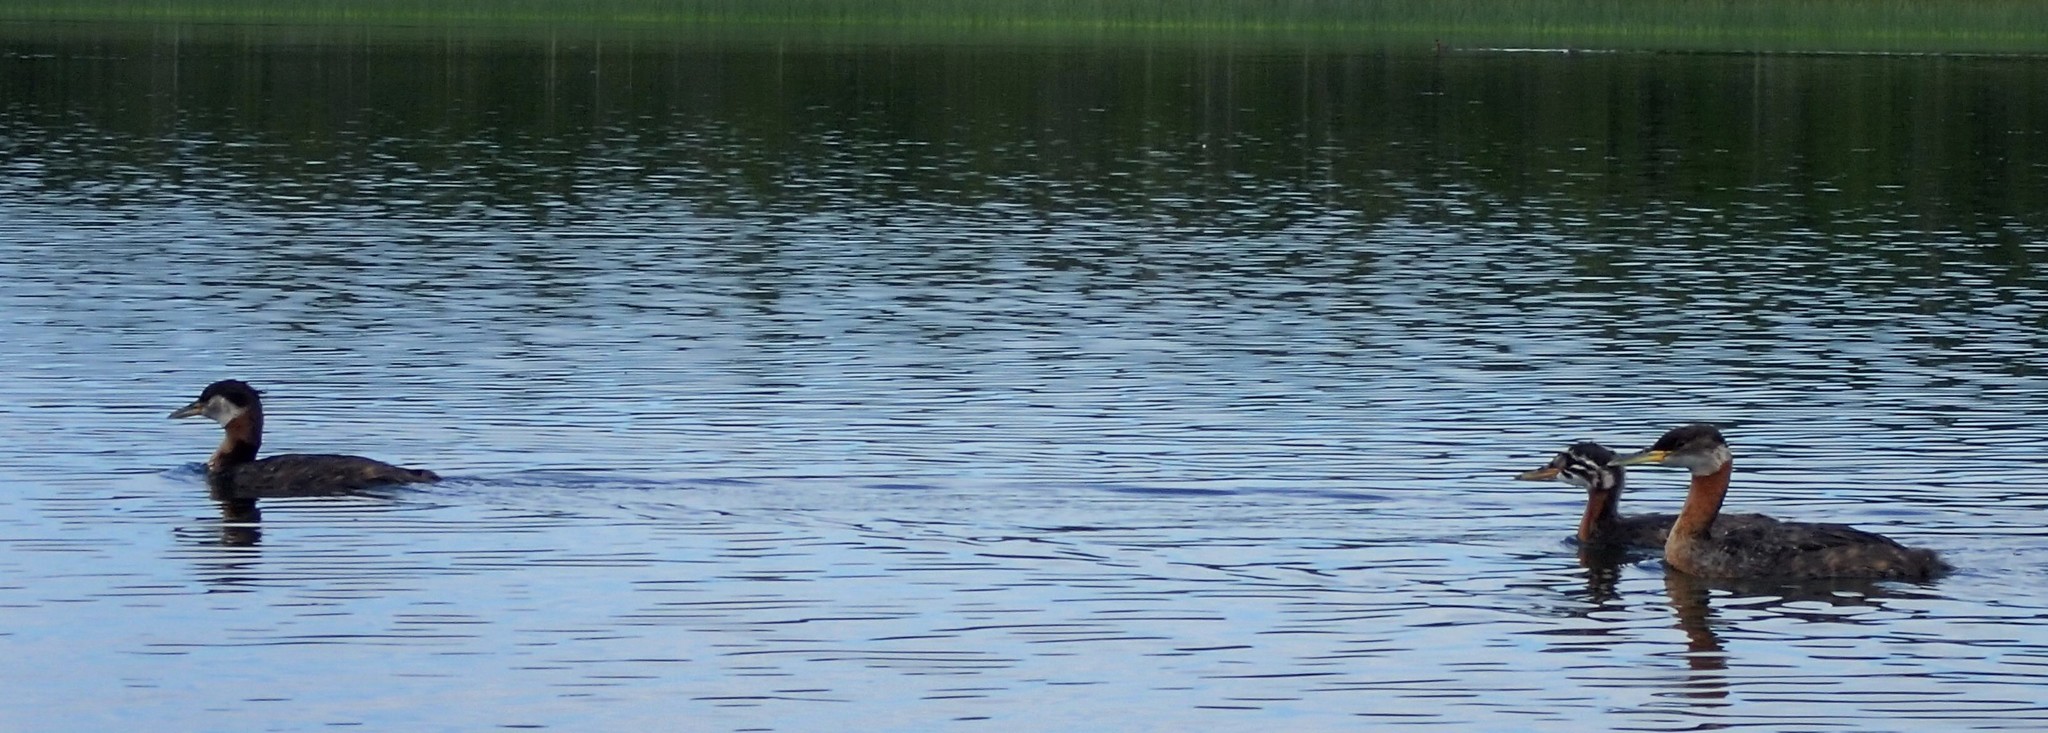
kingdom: Animalia
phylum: Chordata
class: Aves
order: Podicipediformes
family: Podicipedidae
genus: Podiceps
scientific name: Podiceps grisegena
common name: Red-necked grebe
